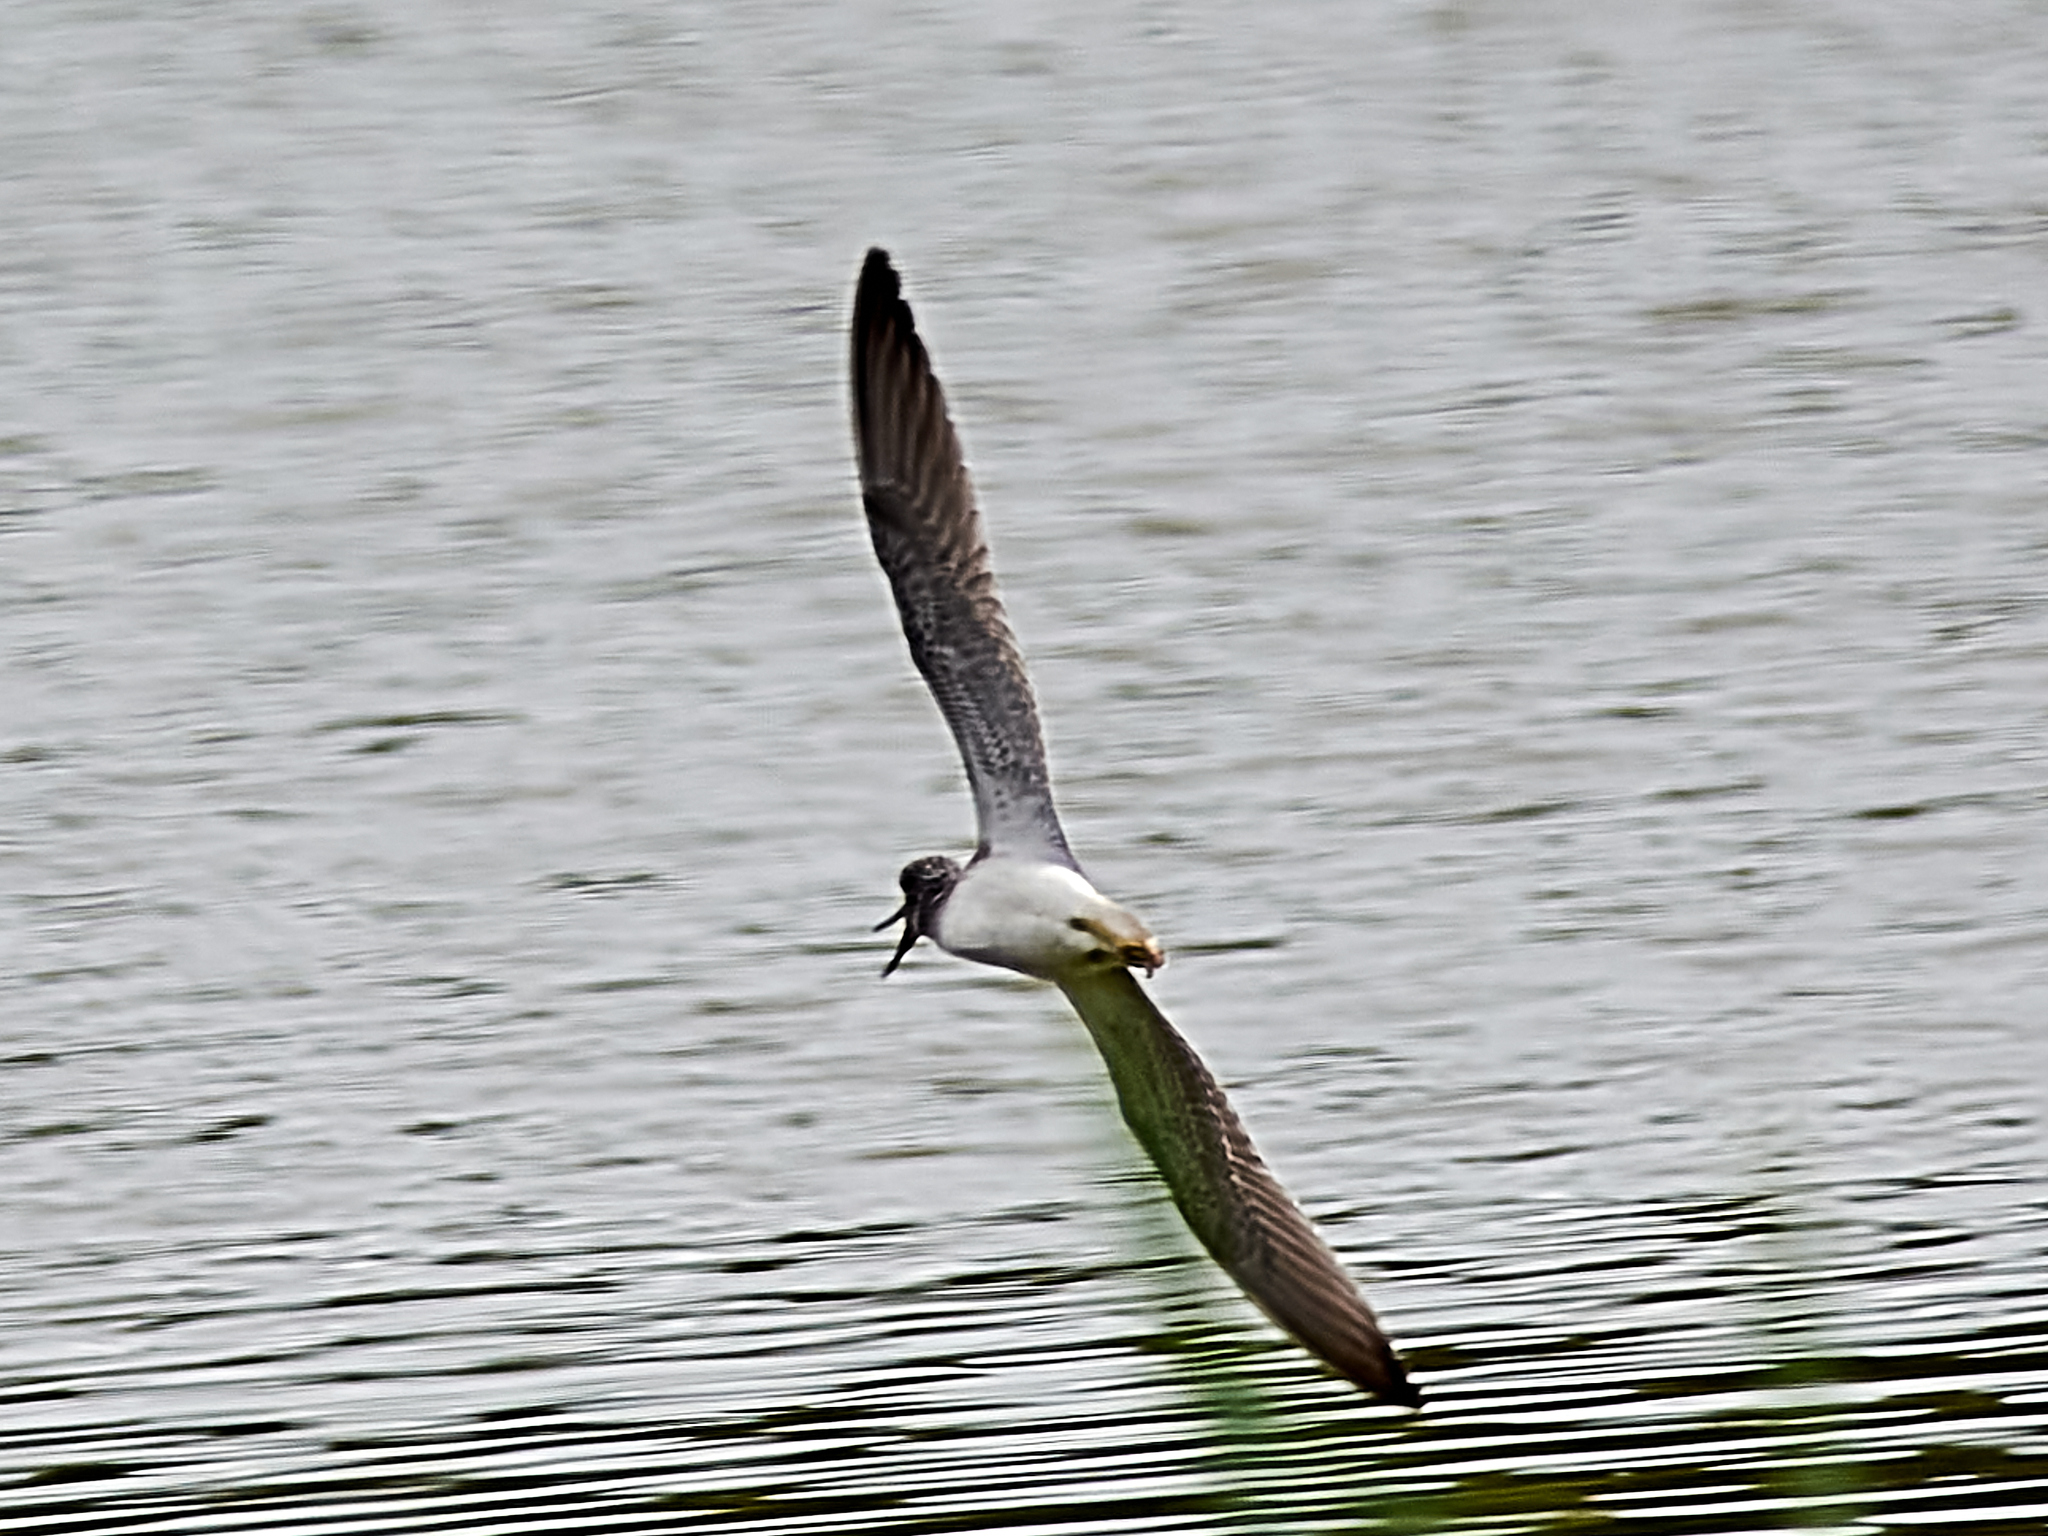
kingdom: Animalia
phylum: Chordata
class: Aves
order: Charadriiformes
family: Scolopacidae
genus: Tringa
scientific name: Tringa nebularia
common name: Common greenshank
